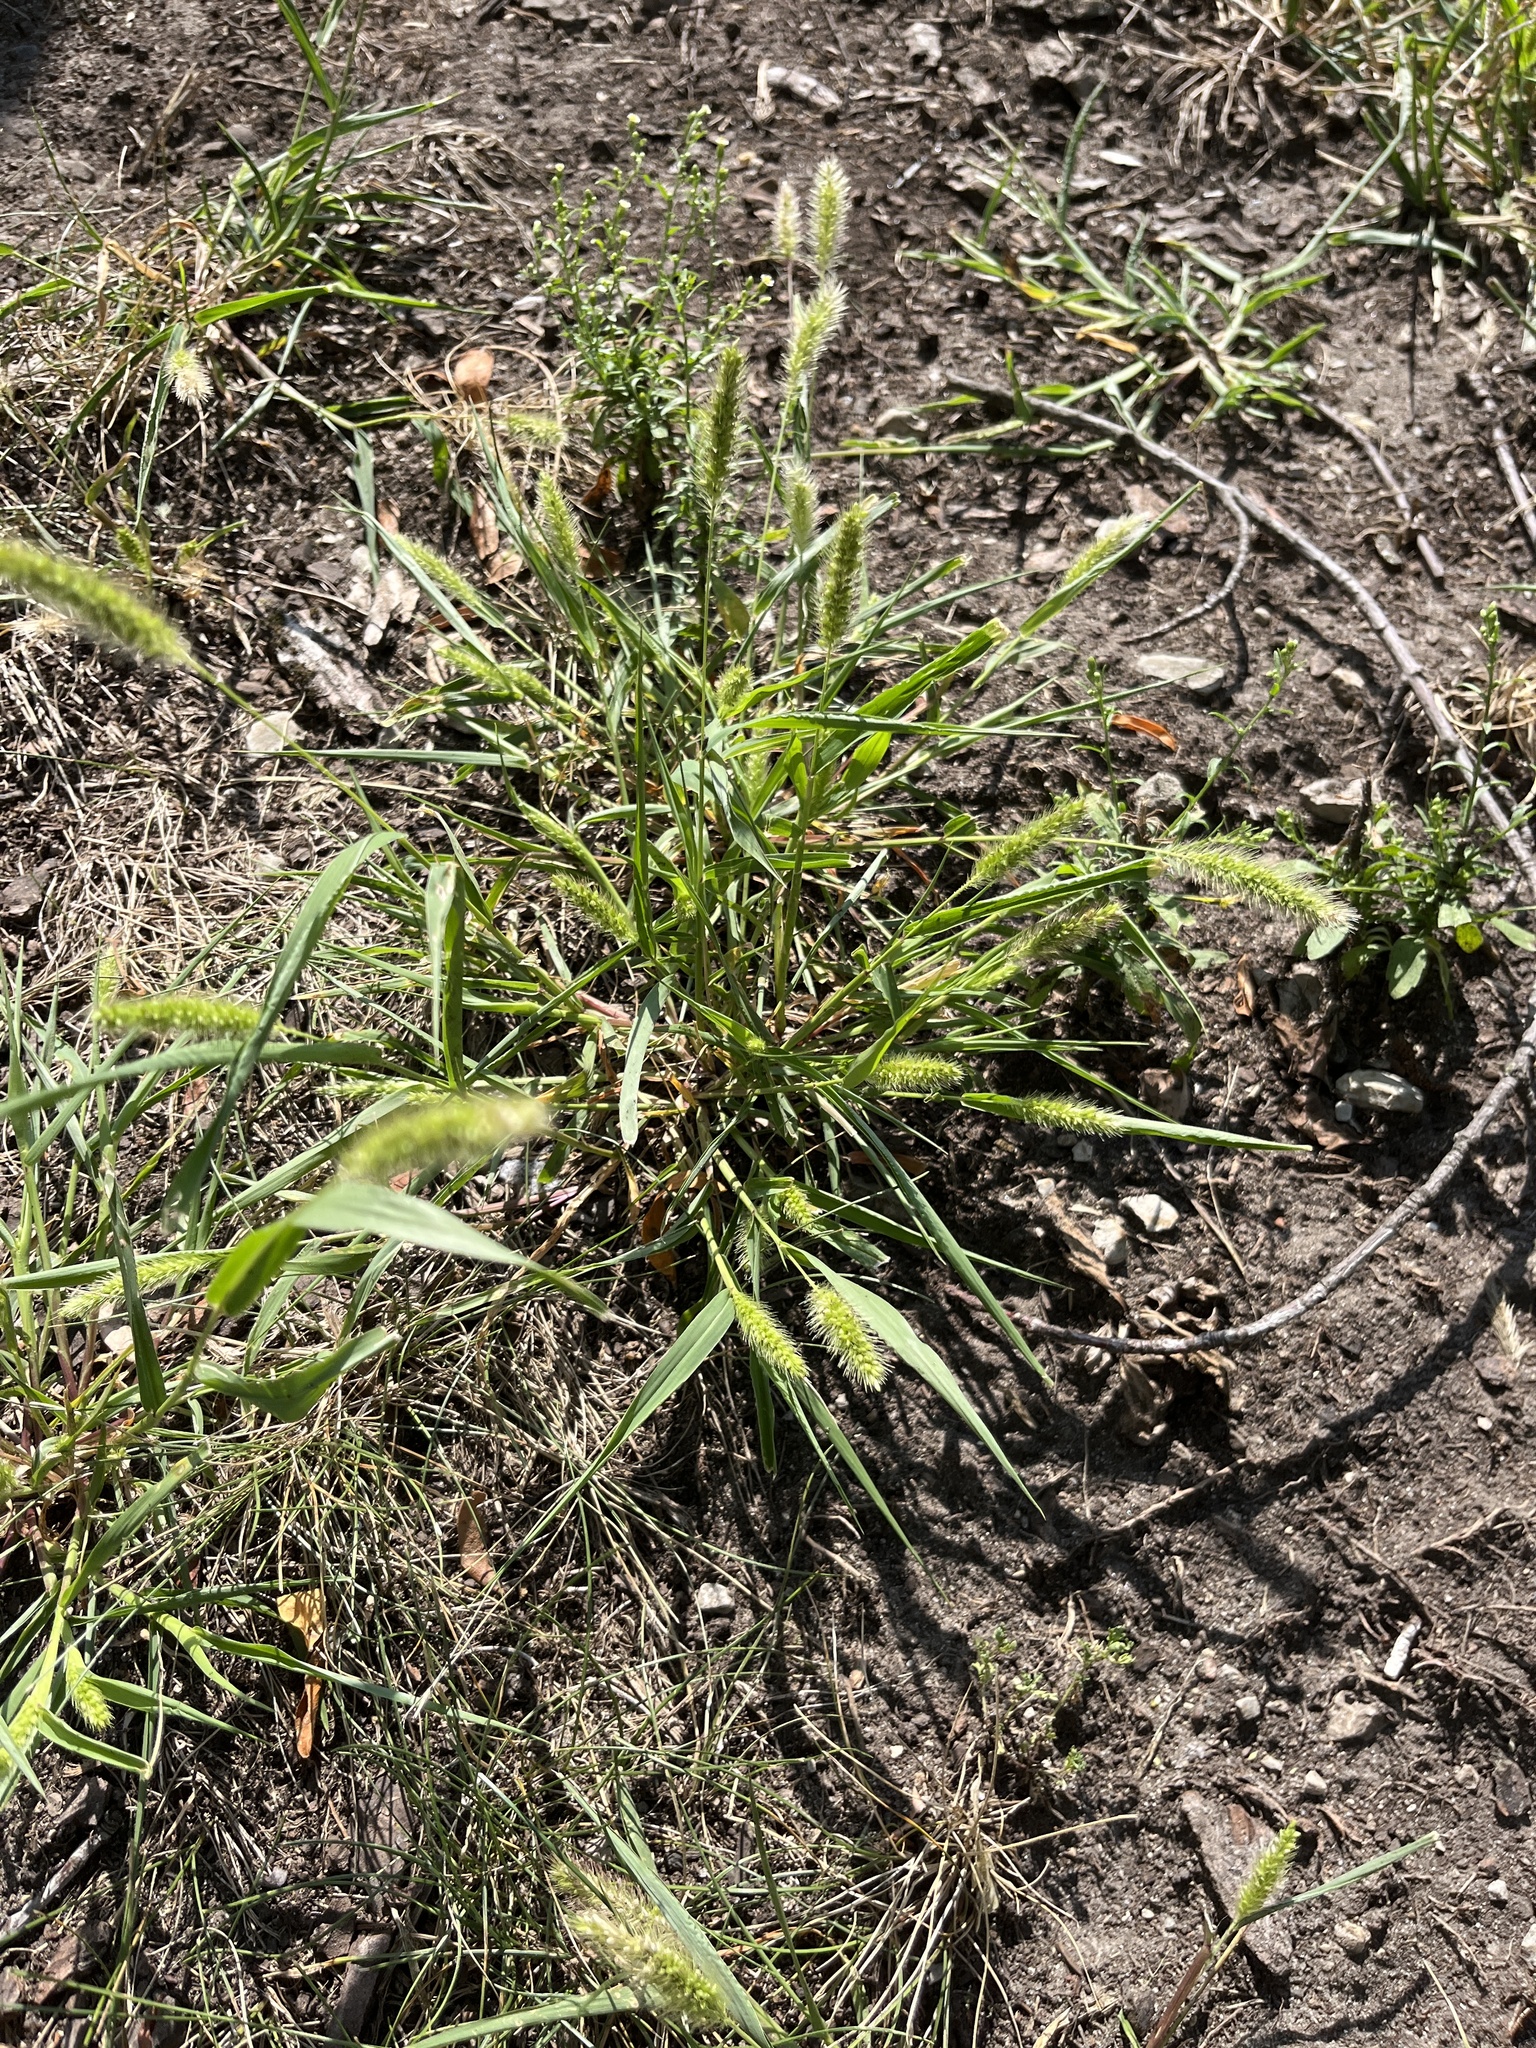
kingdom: Plantae
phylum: Tracheophyta
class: Liliopsida
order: Poales
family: Poaceae
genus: Setaria
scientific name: Setaria viridis
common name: Green bristlegrass
